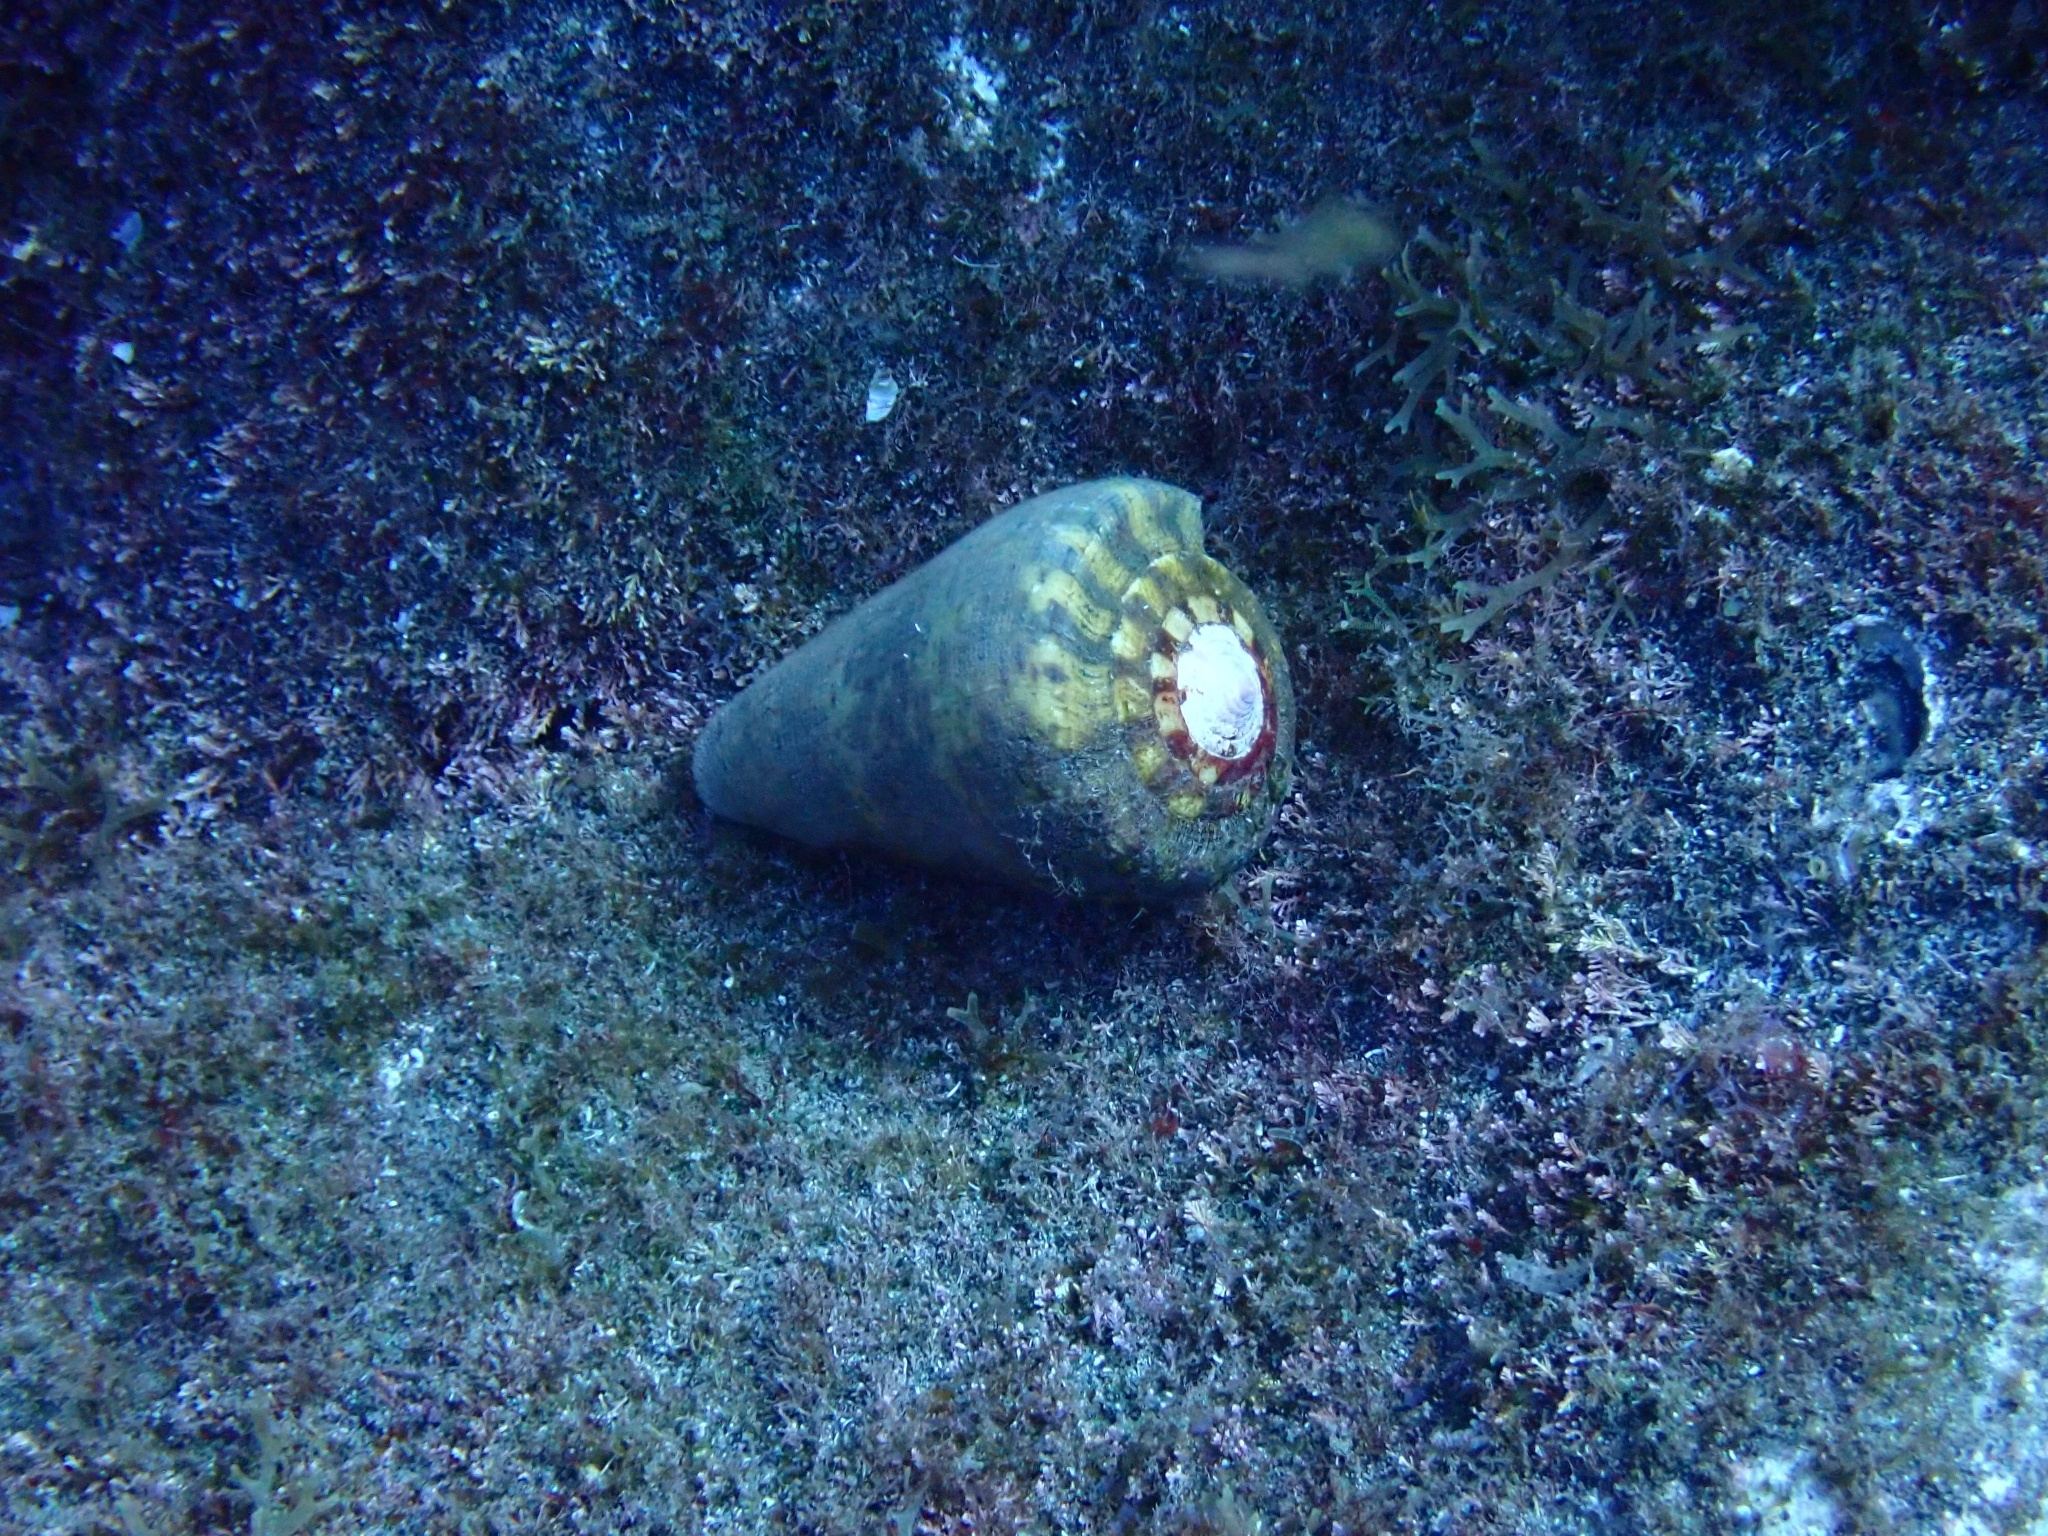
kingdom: Animalia
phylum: Mollusca
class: Gastropoda
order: Neogastropoda
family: Conidae
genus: Conus
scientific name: Conus canariensis
